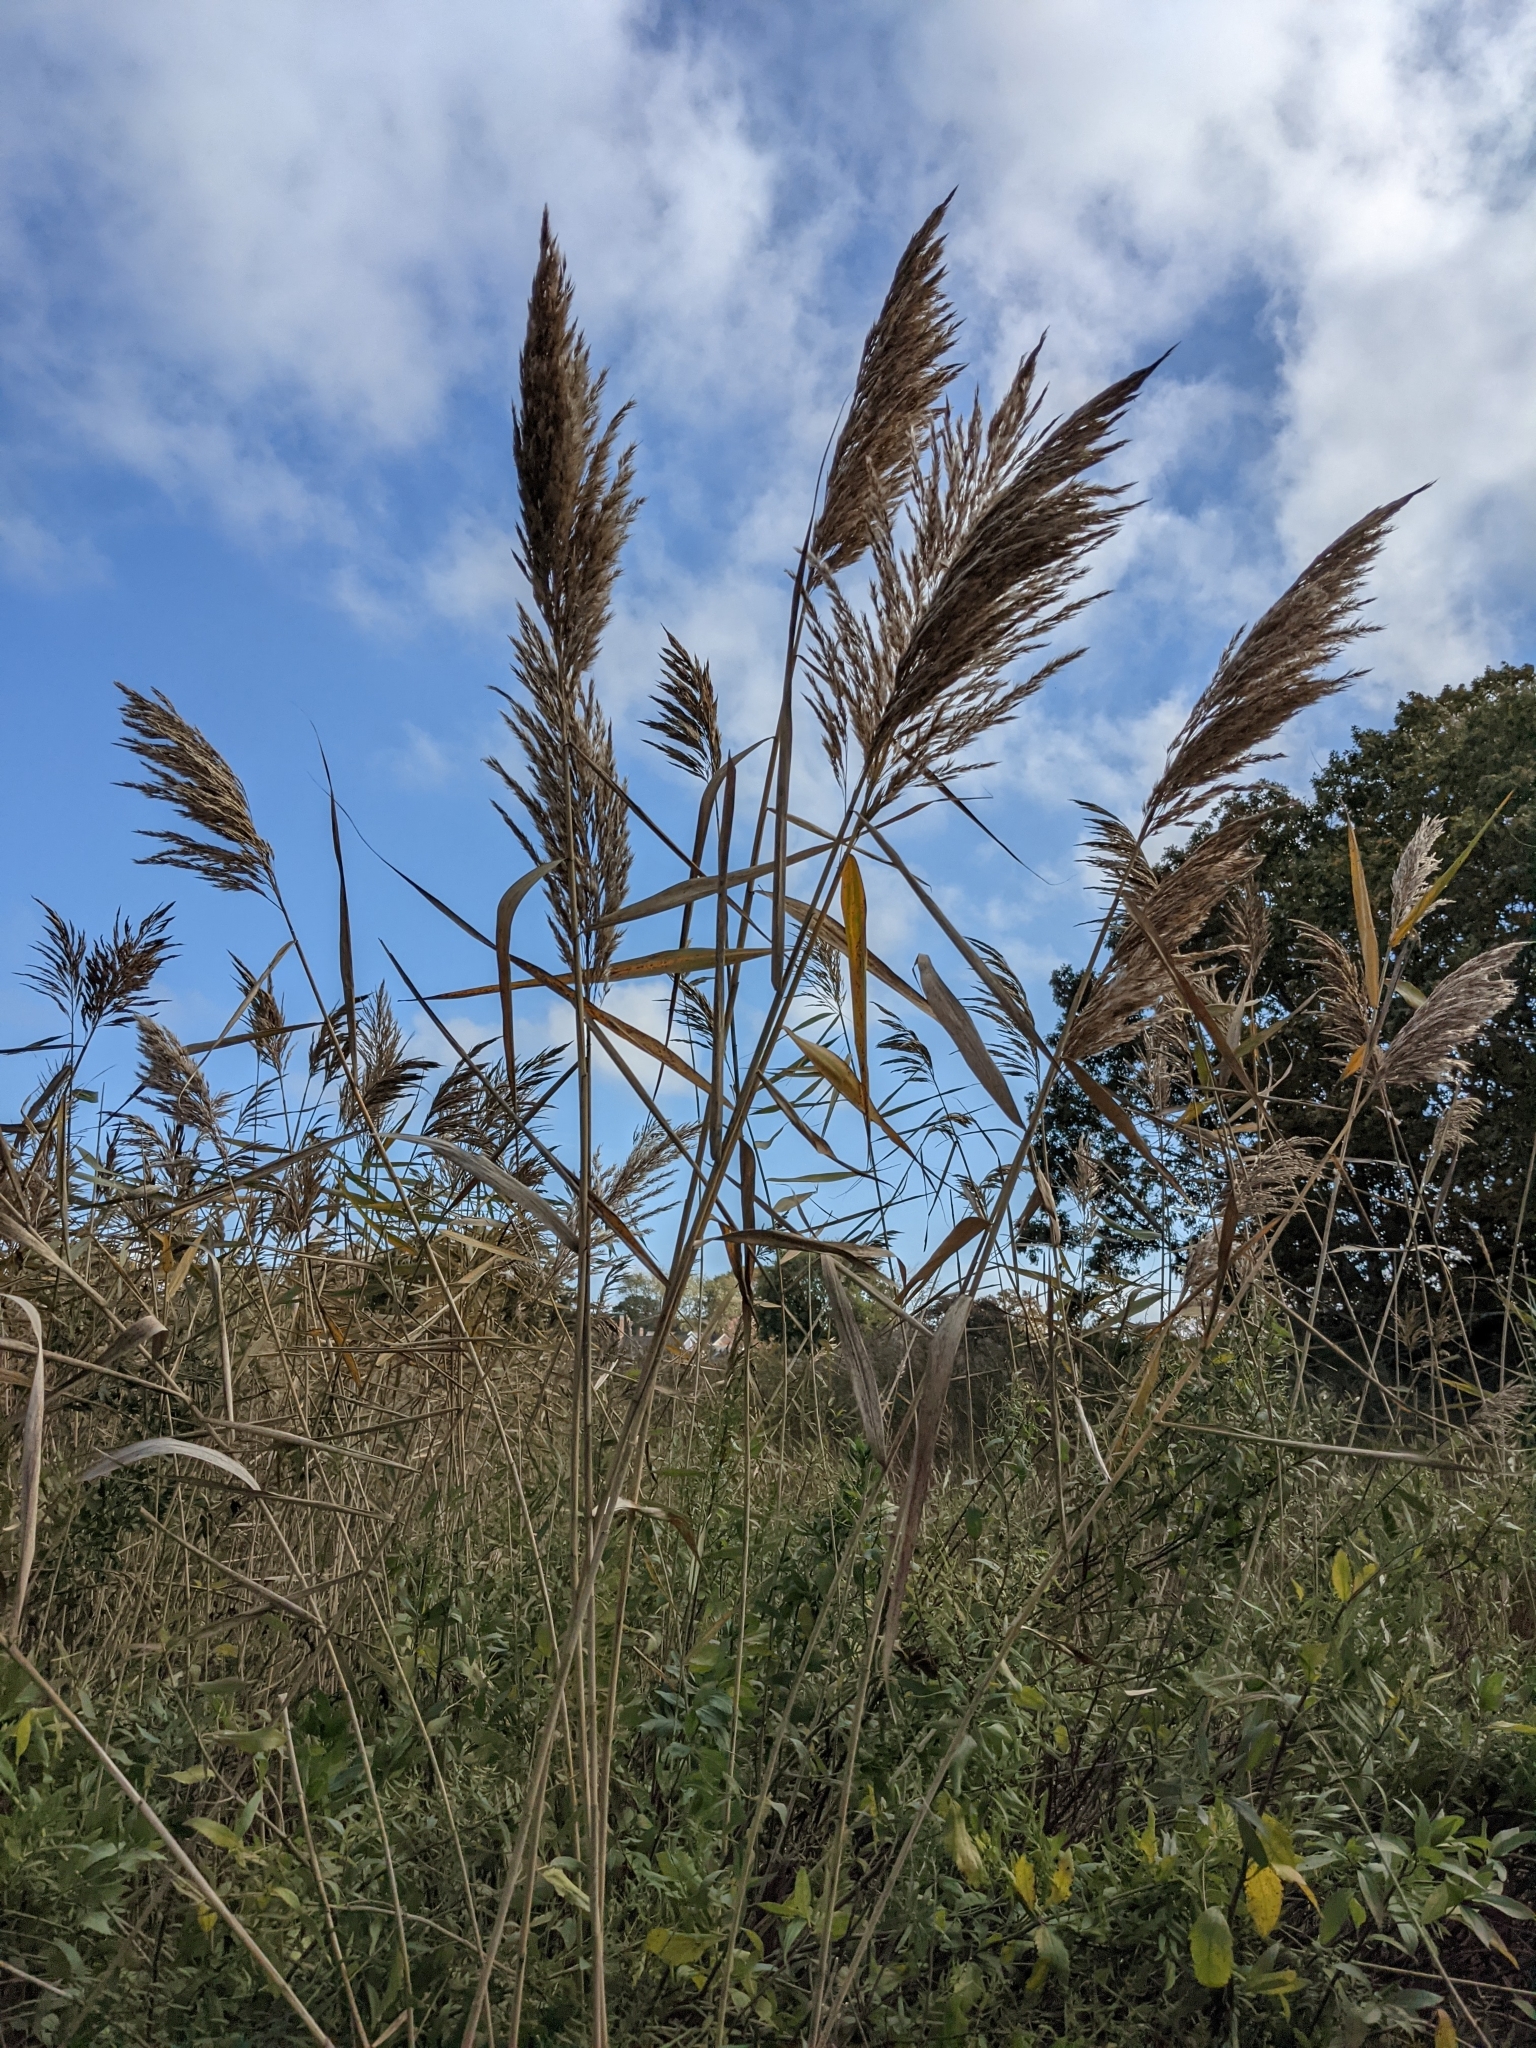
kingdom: Plantae
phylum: Tracheophyta
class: Liliopsida
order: Poales
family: Poaceae
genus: Phragmites
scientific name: Phragmites australis
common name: Common reed
